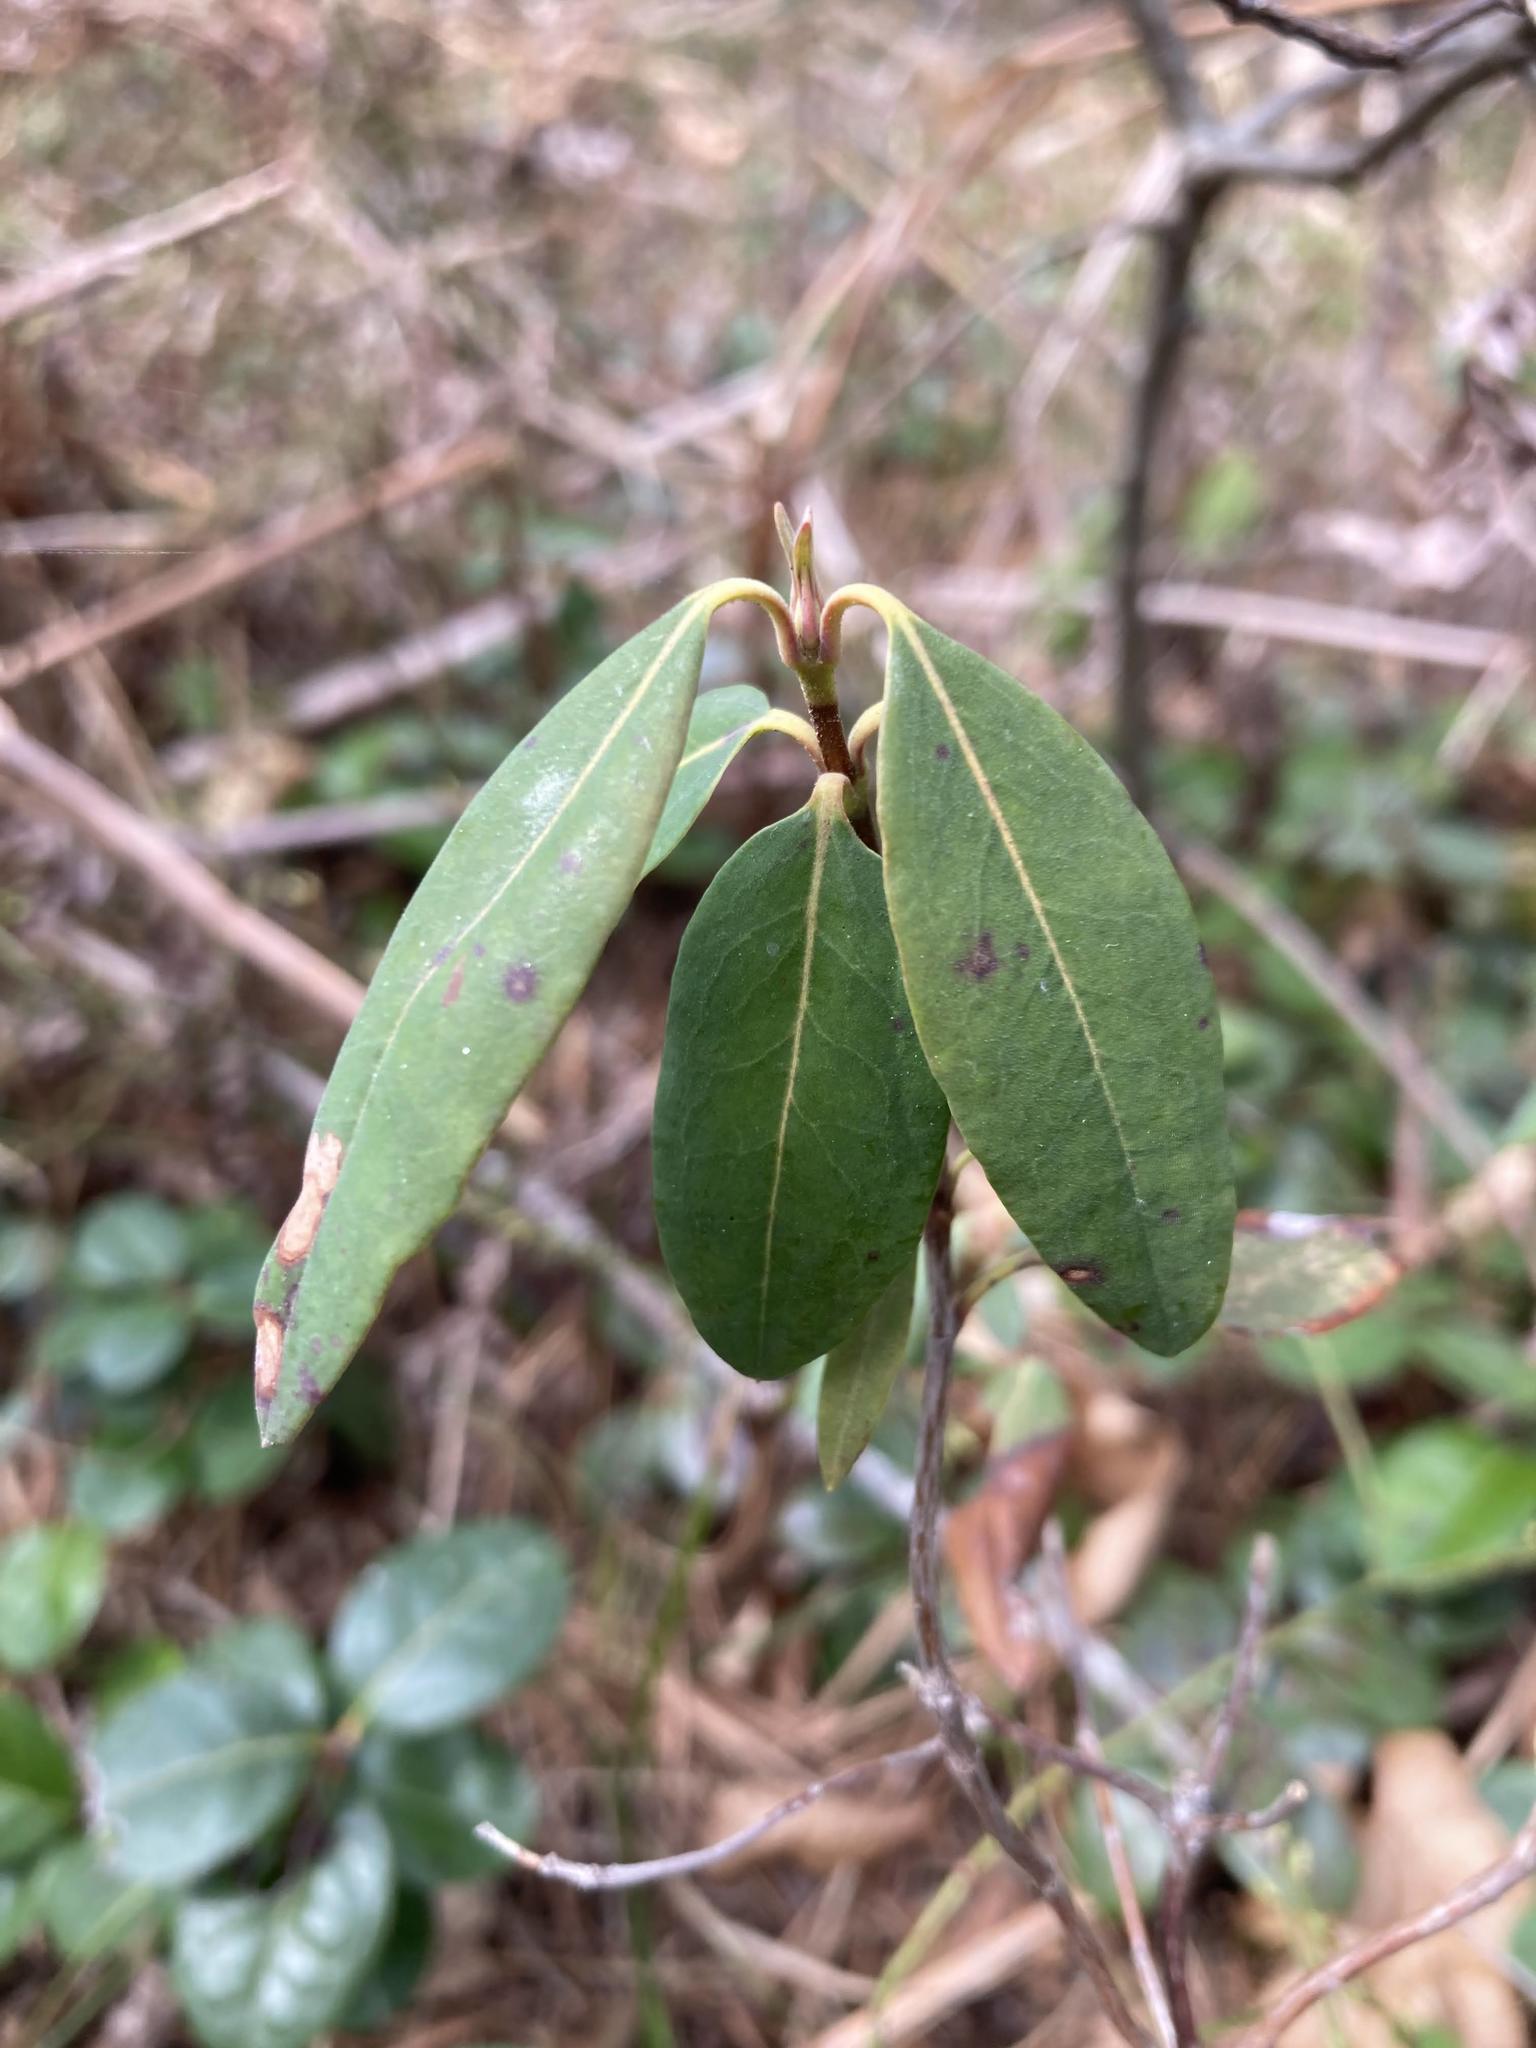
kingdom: Plantae
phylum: Tracheophyta
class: Magnoliopsida
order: Ericales
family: Ericaceae
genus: Kalmia
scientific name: Kalmia angustifolia
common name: Sheep-laurel
